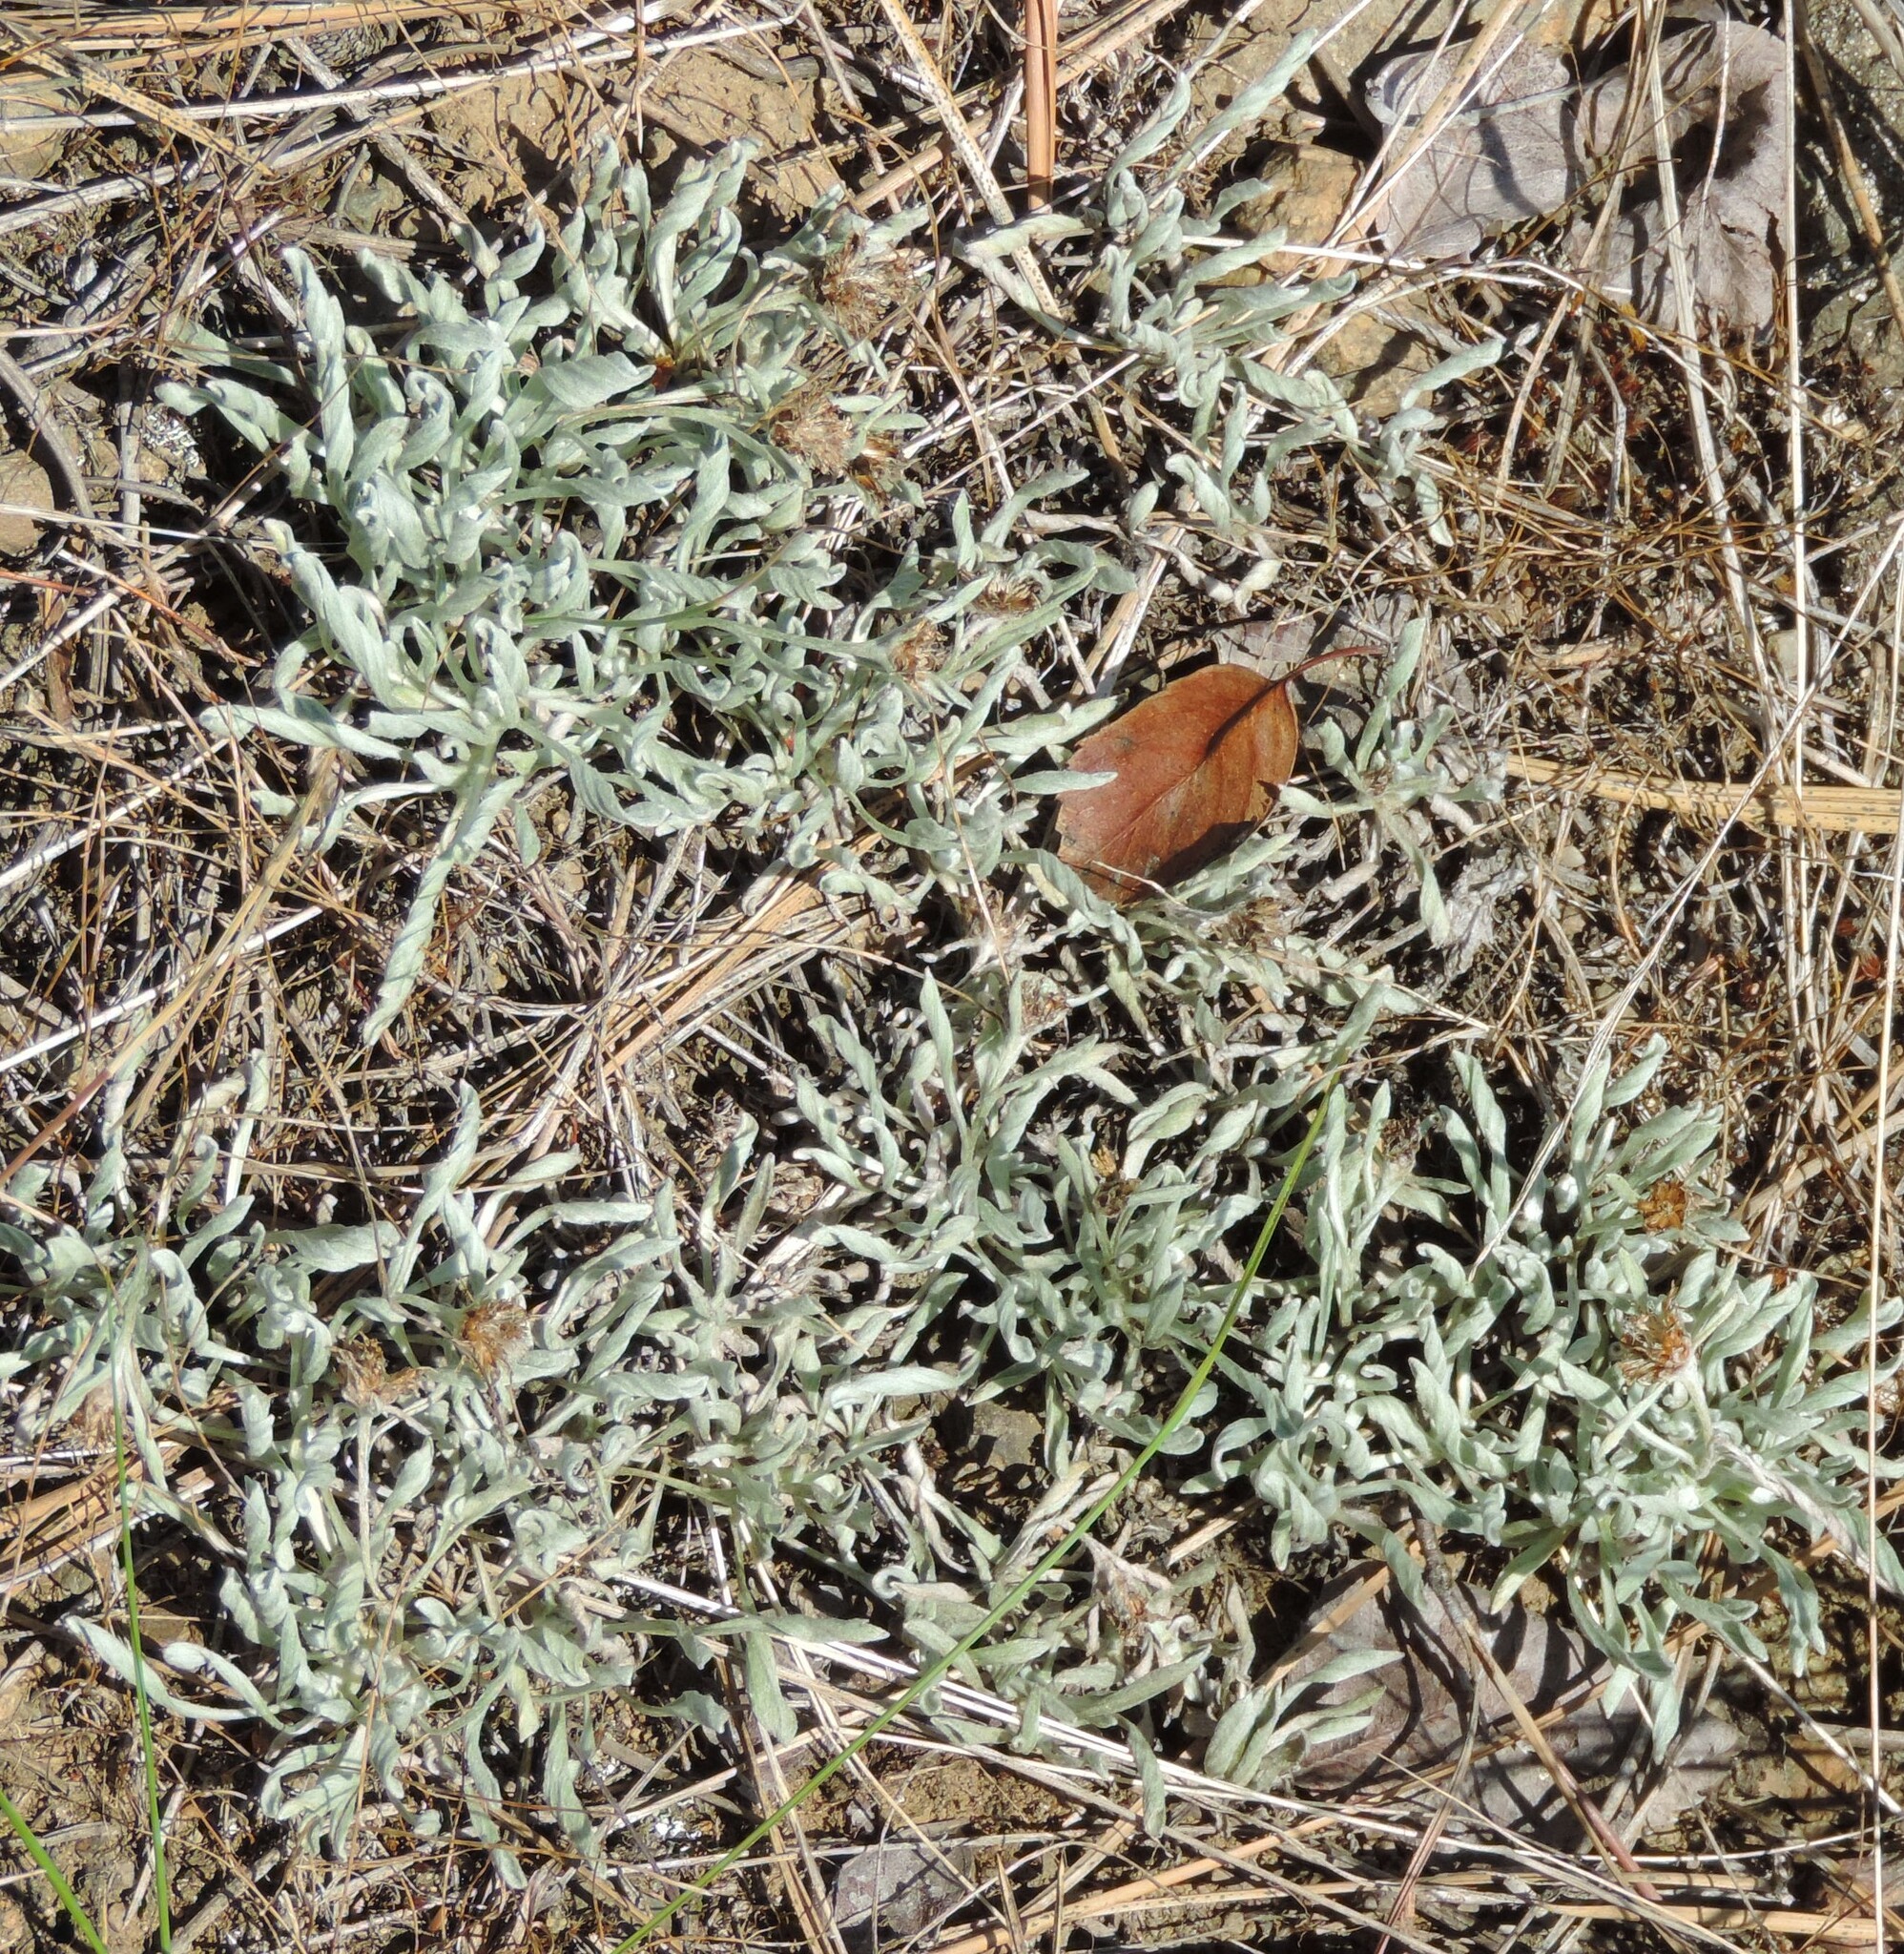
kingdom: Plantae
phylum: Tracheophyta
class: Magnoliopsida
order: Asterales
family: Asteraceae
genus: Antennaria
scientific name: Antennaria dimorpha
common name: Cushion pussytoes
